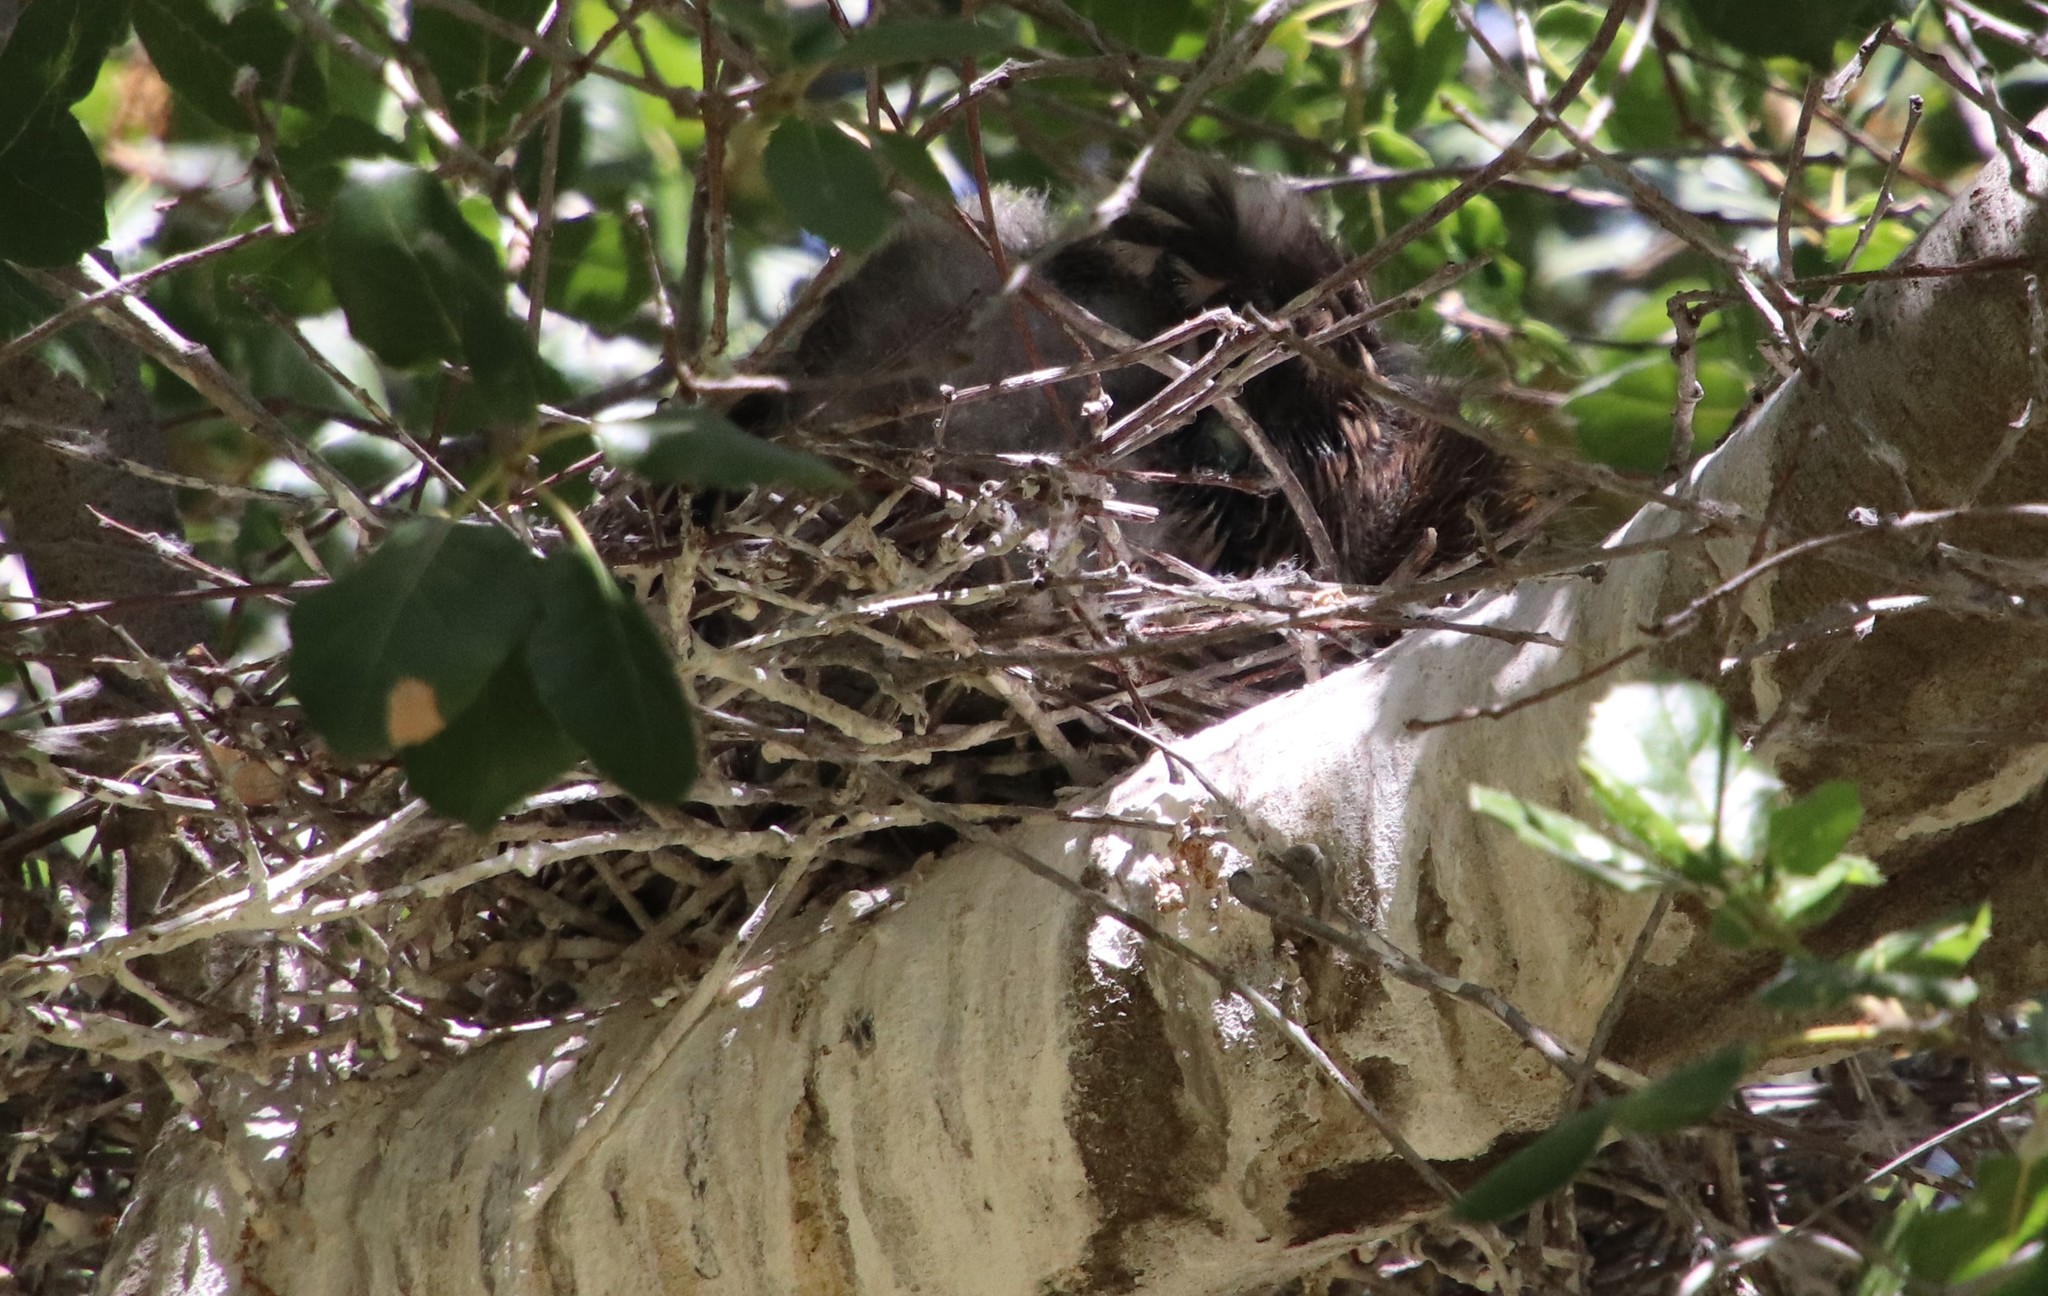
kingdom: Animalia
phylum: Chordata
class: Aves
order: Pelecaniformes
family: Ardeidae
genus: Nycticorax
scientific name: Nycticorax nycticorax
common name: Black-crowned night heron
